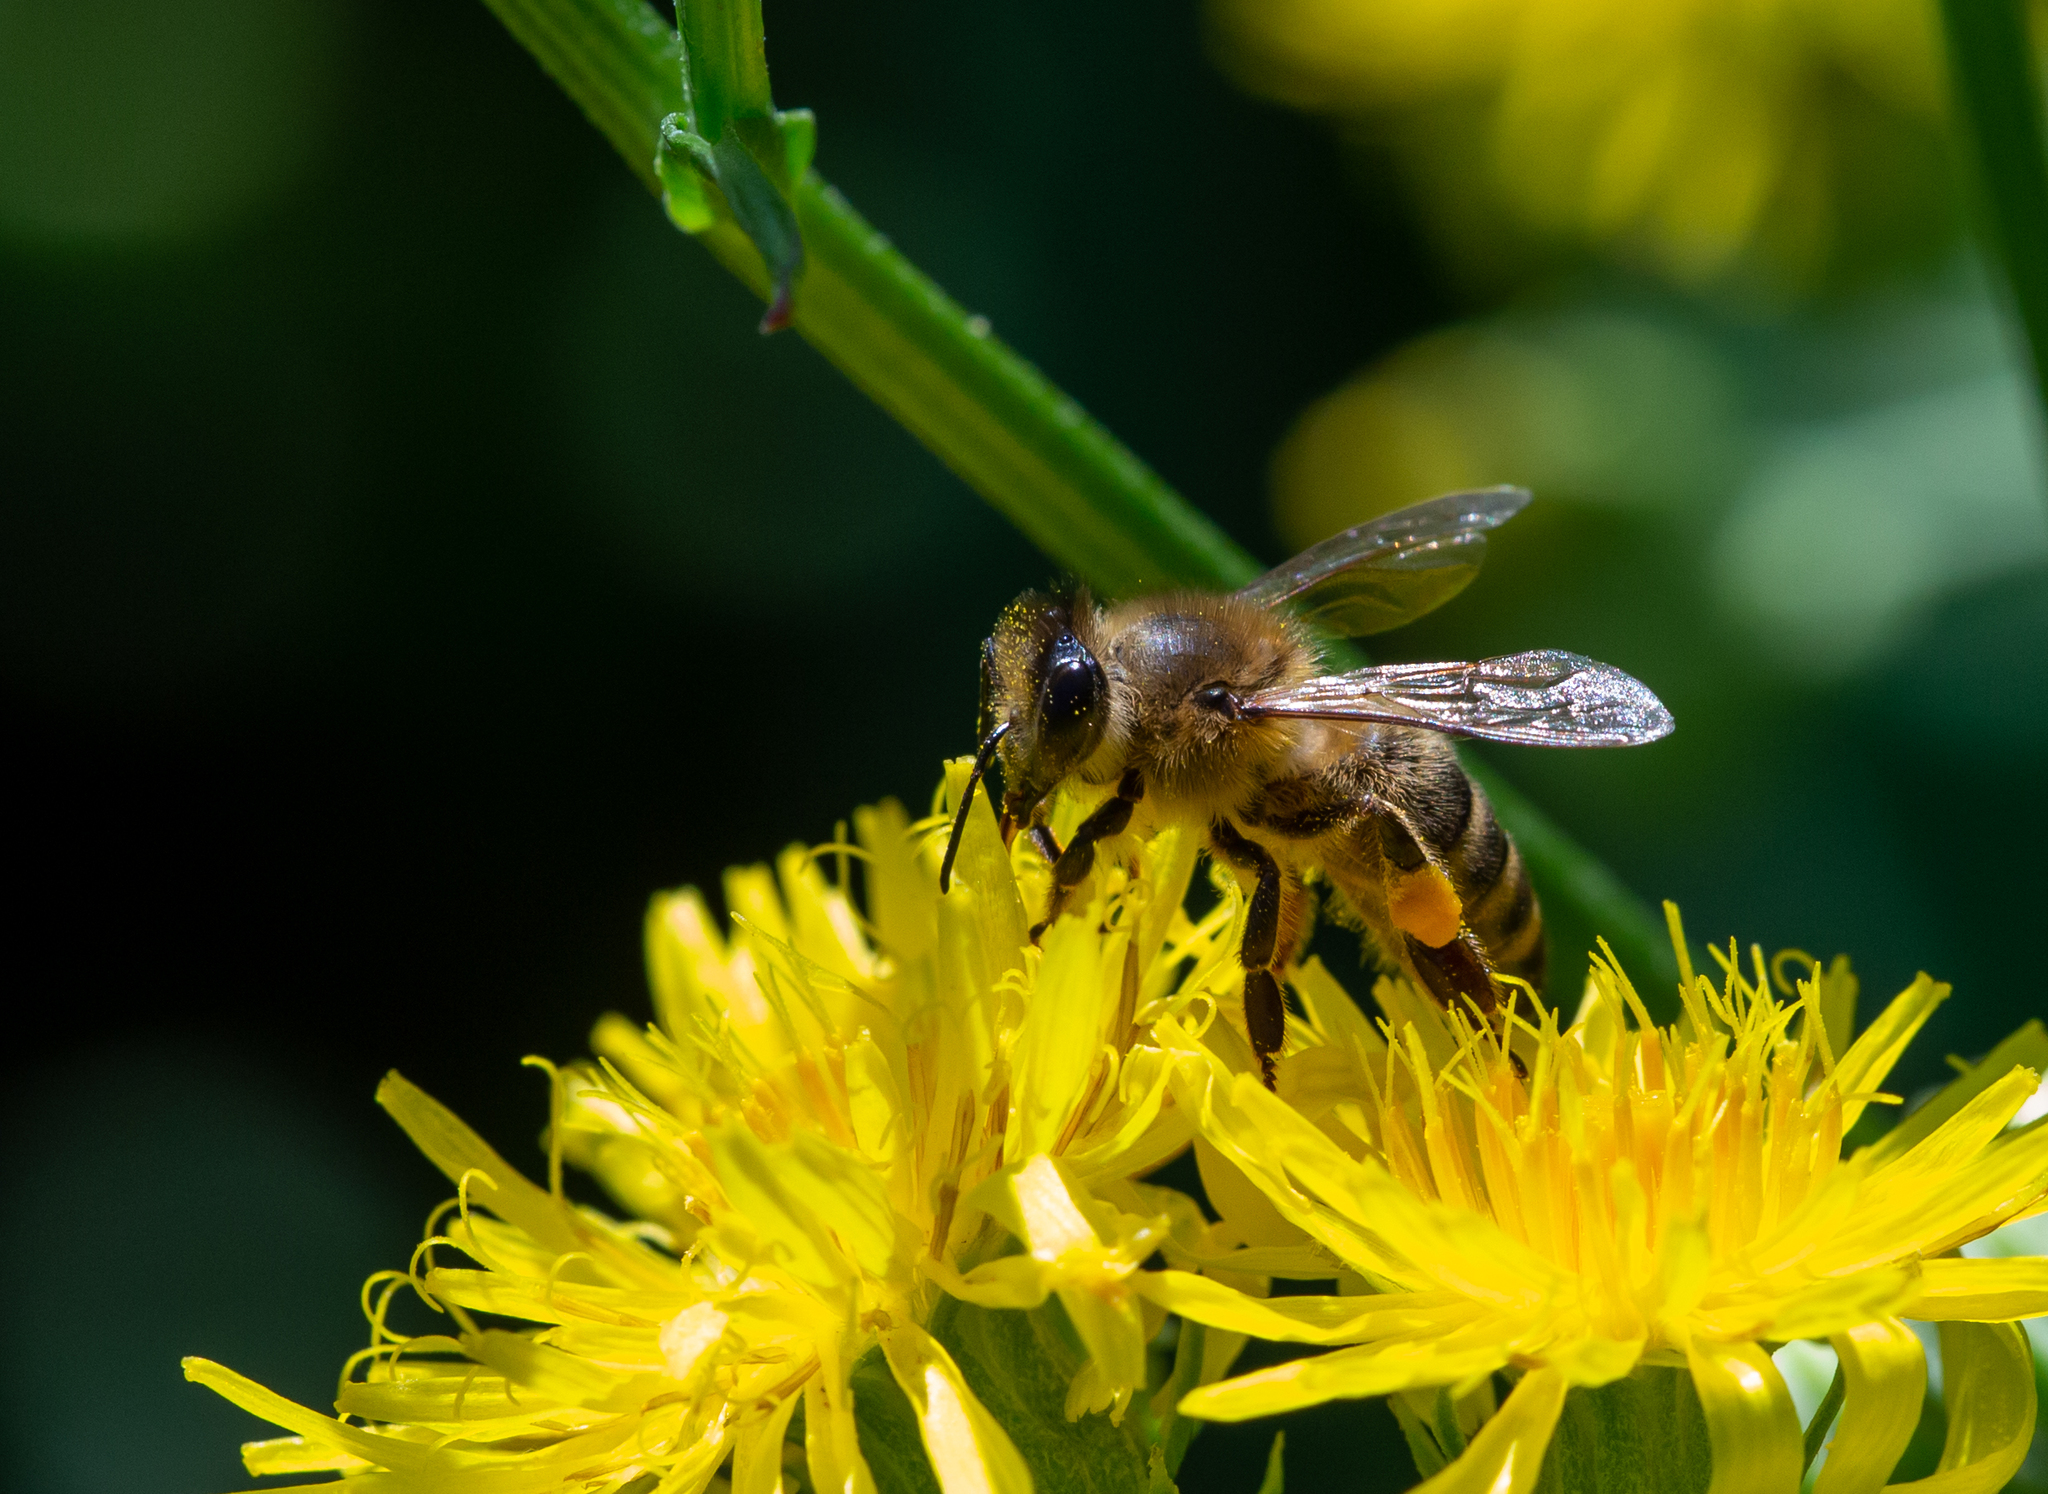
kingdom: Animalia
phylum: Arthropoda
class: Insecta
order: Hymenoptera
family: Apidae
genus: Apis
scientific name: Apis mellifera
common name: Honey bee
